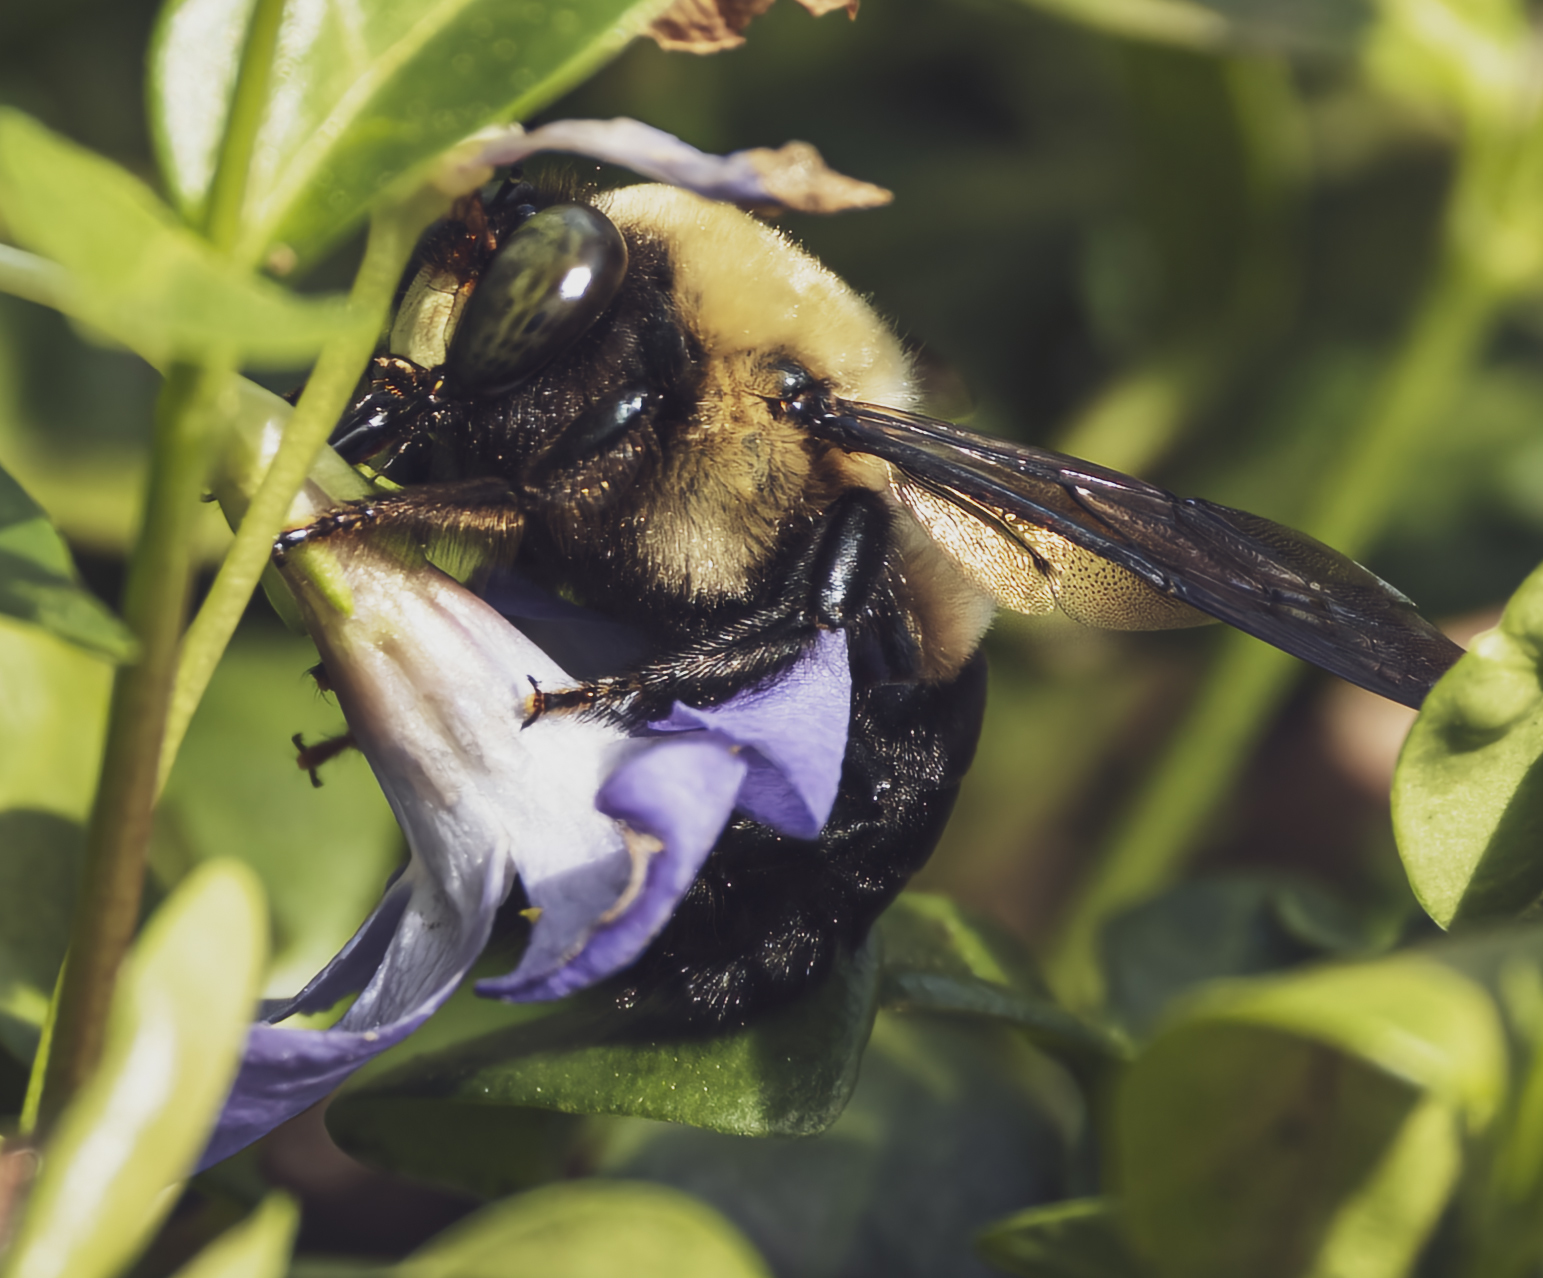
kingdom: Animalia
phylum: Arthropoda
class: Insecta
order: Hymenoptera
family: Apidae
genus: Xylocopa
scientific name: Xylocopa virginica
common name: Carpenter bee
